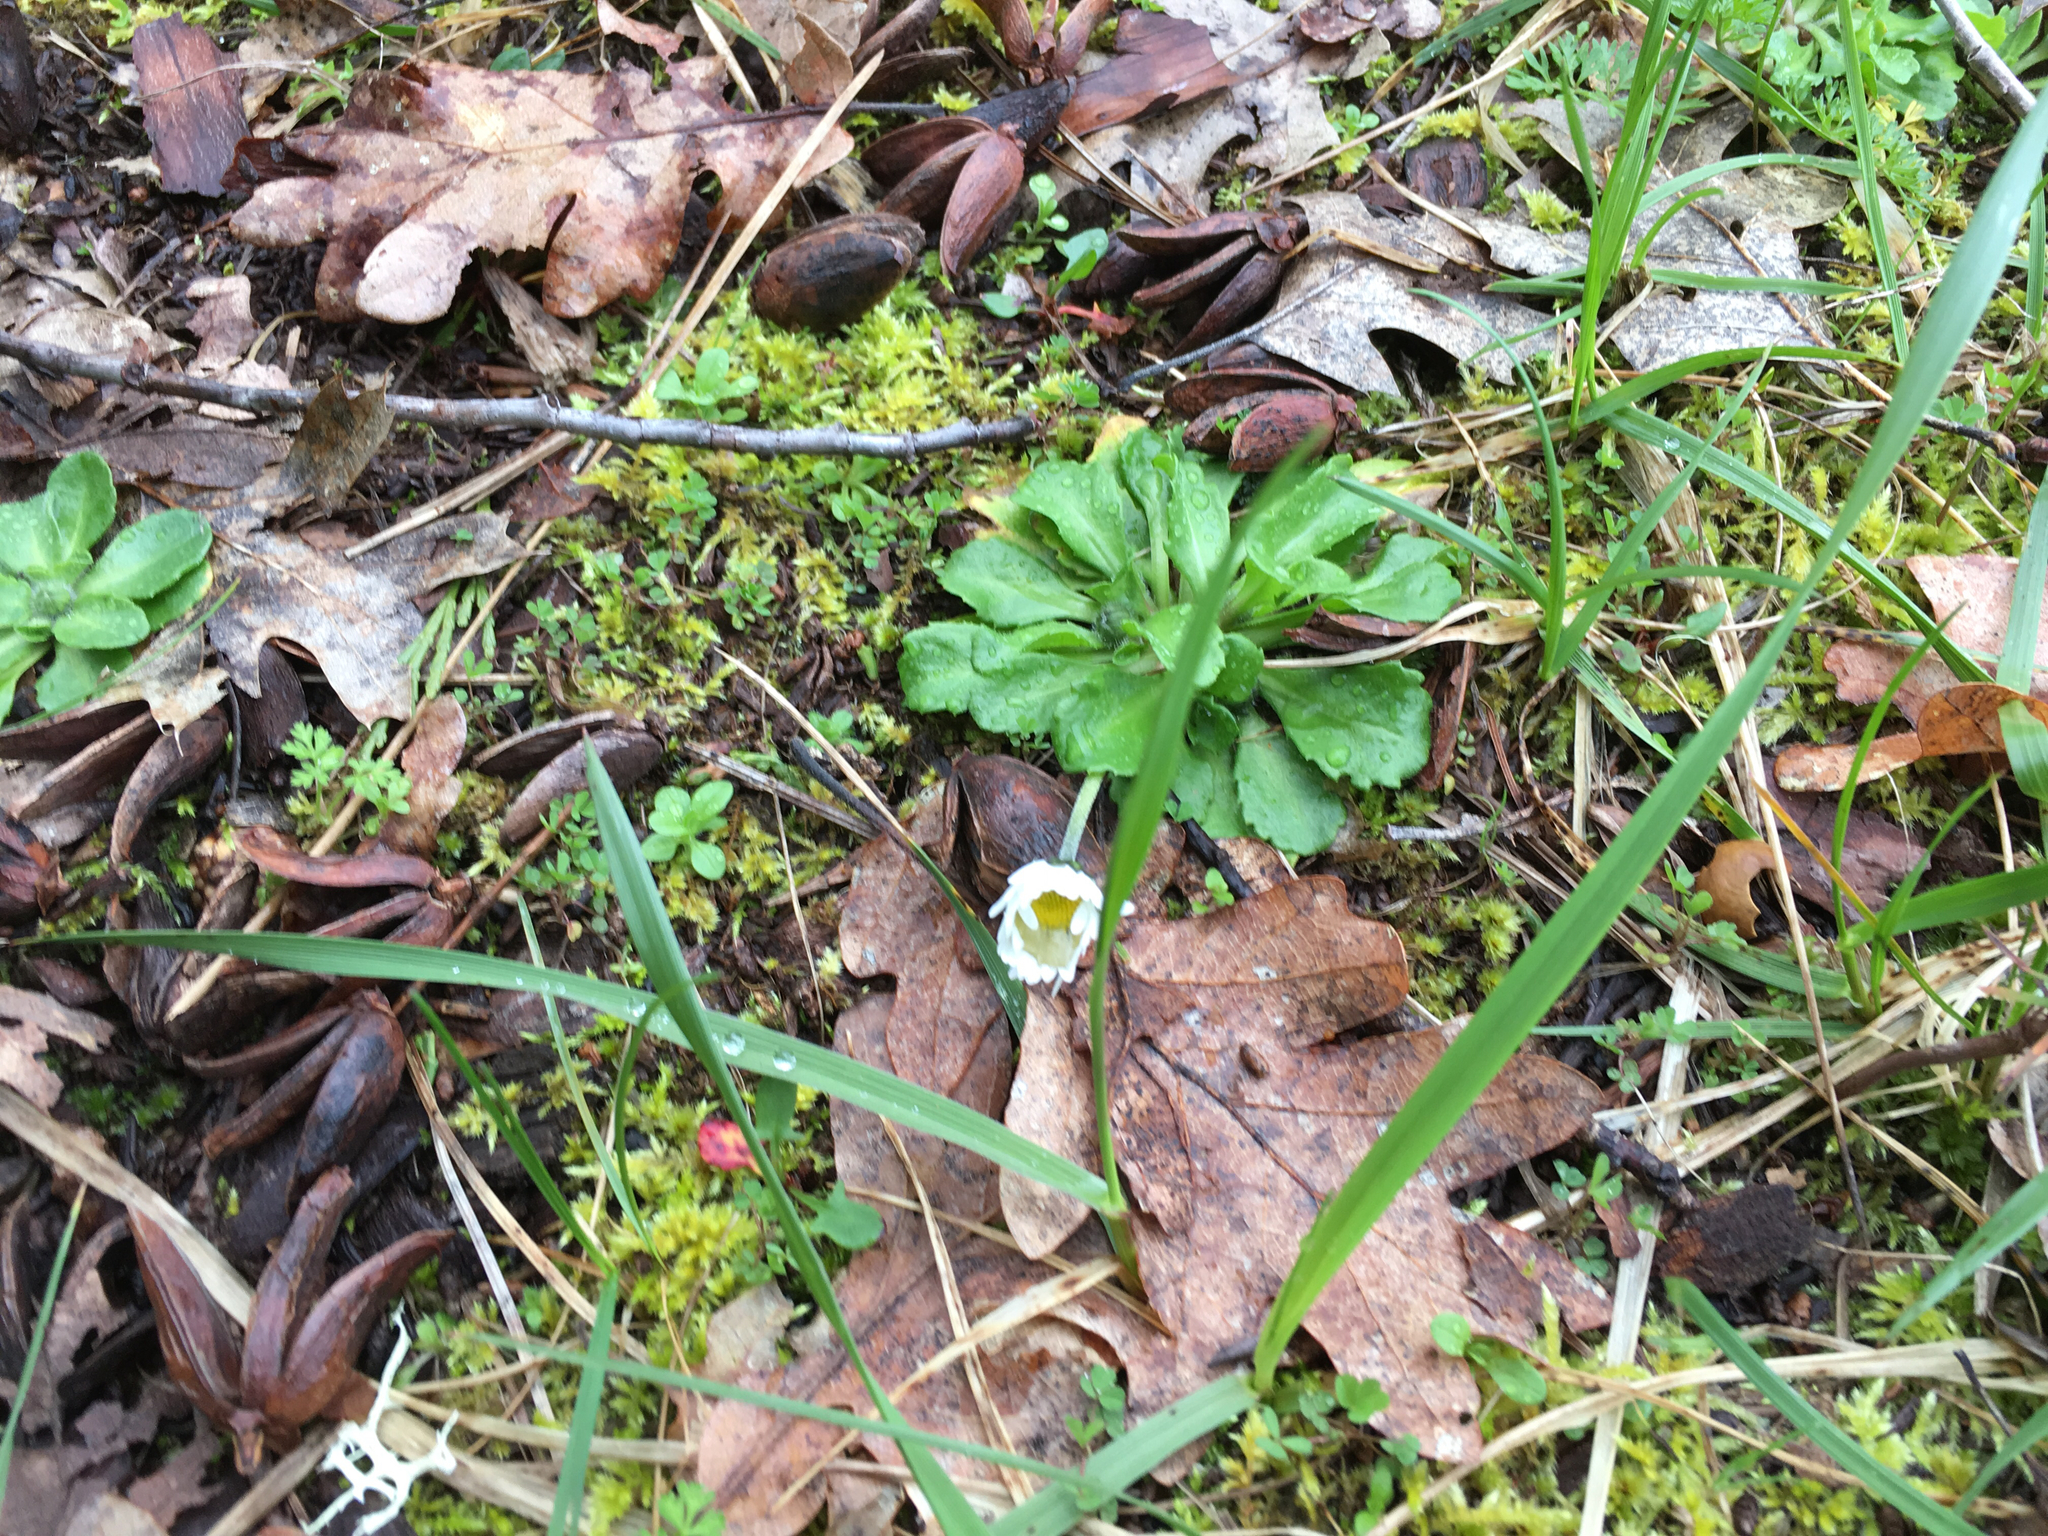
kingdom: Plantae
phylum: Tracheophyta
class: Magnoliopsida
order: Asterales
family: Asteraceae
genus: Bellis
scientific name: Bellis perennis
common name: Lawndaisy
